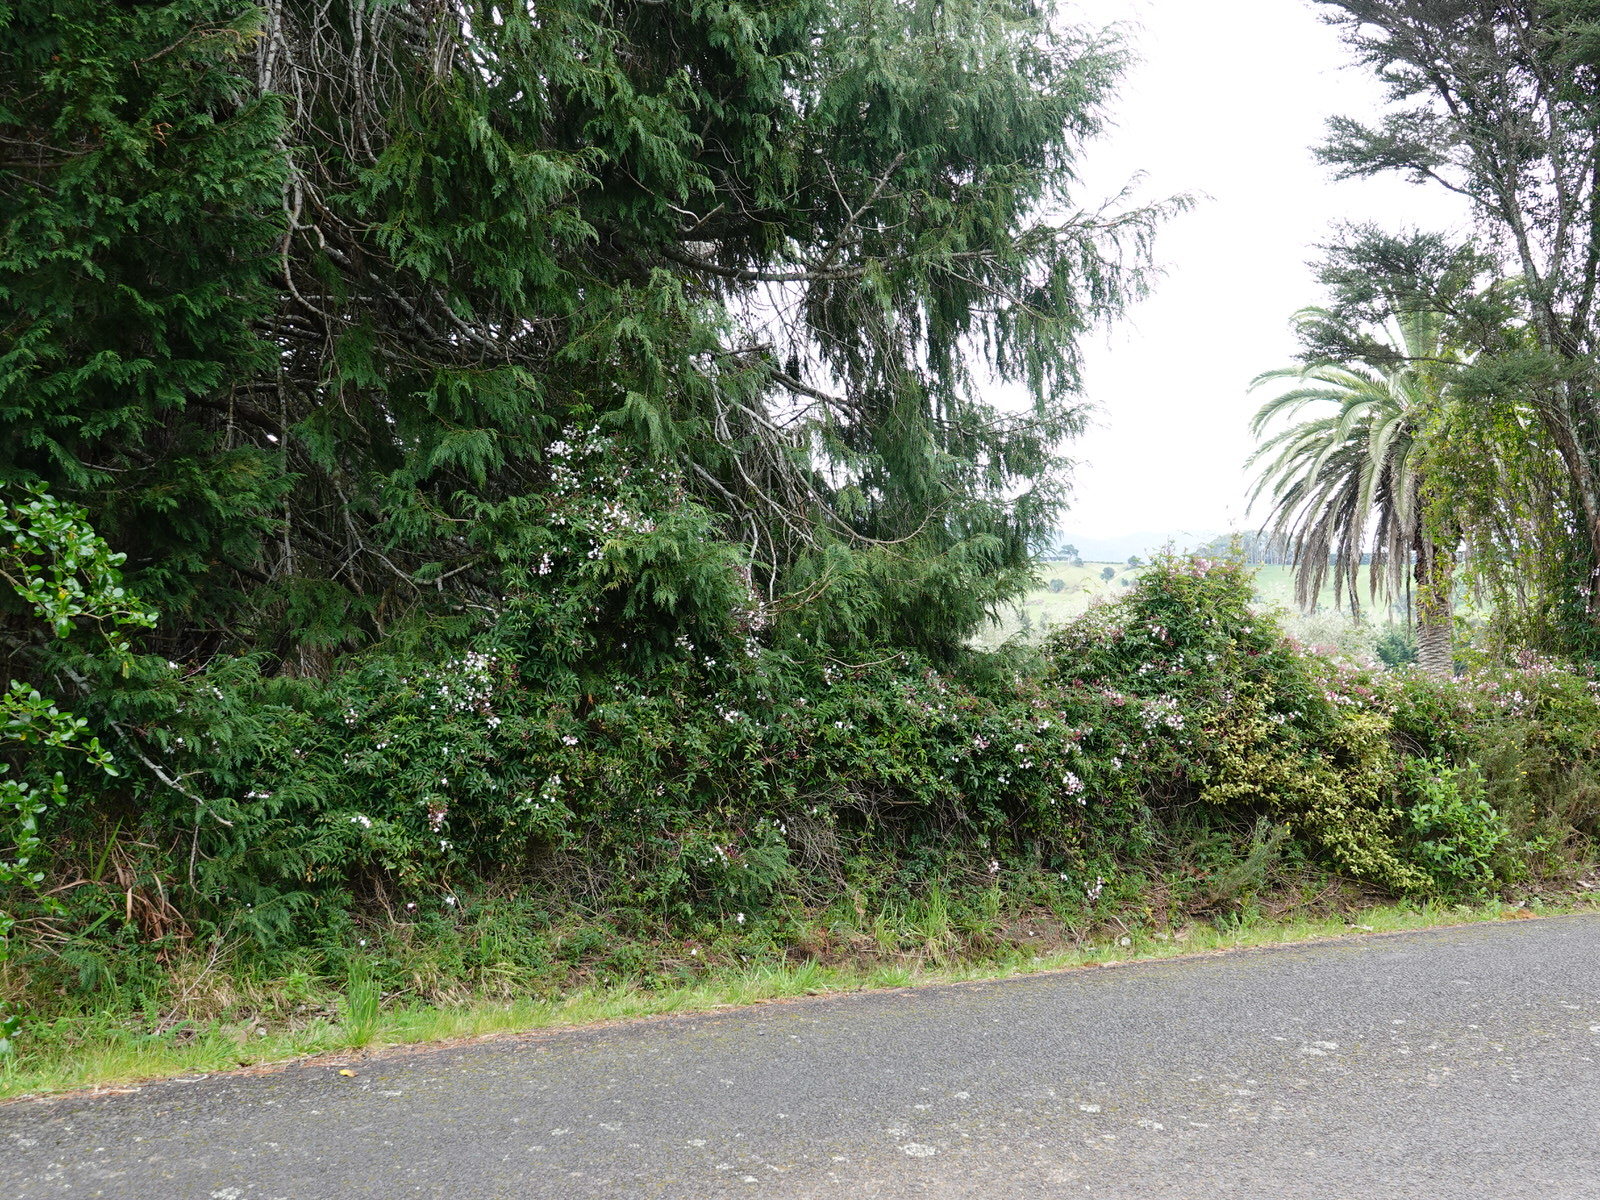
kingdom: Plantae
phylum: Tracheophyta
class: Magnoliopsida
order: Lamiales
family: Oleaceae
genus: Jasminum
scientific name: Jasminum polyanthum
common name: Pink jasmine
